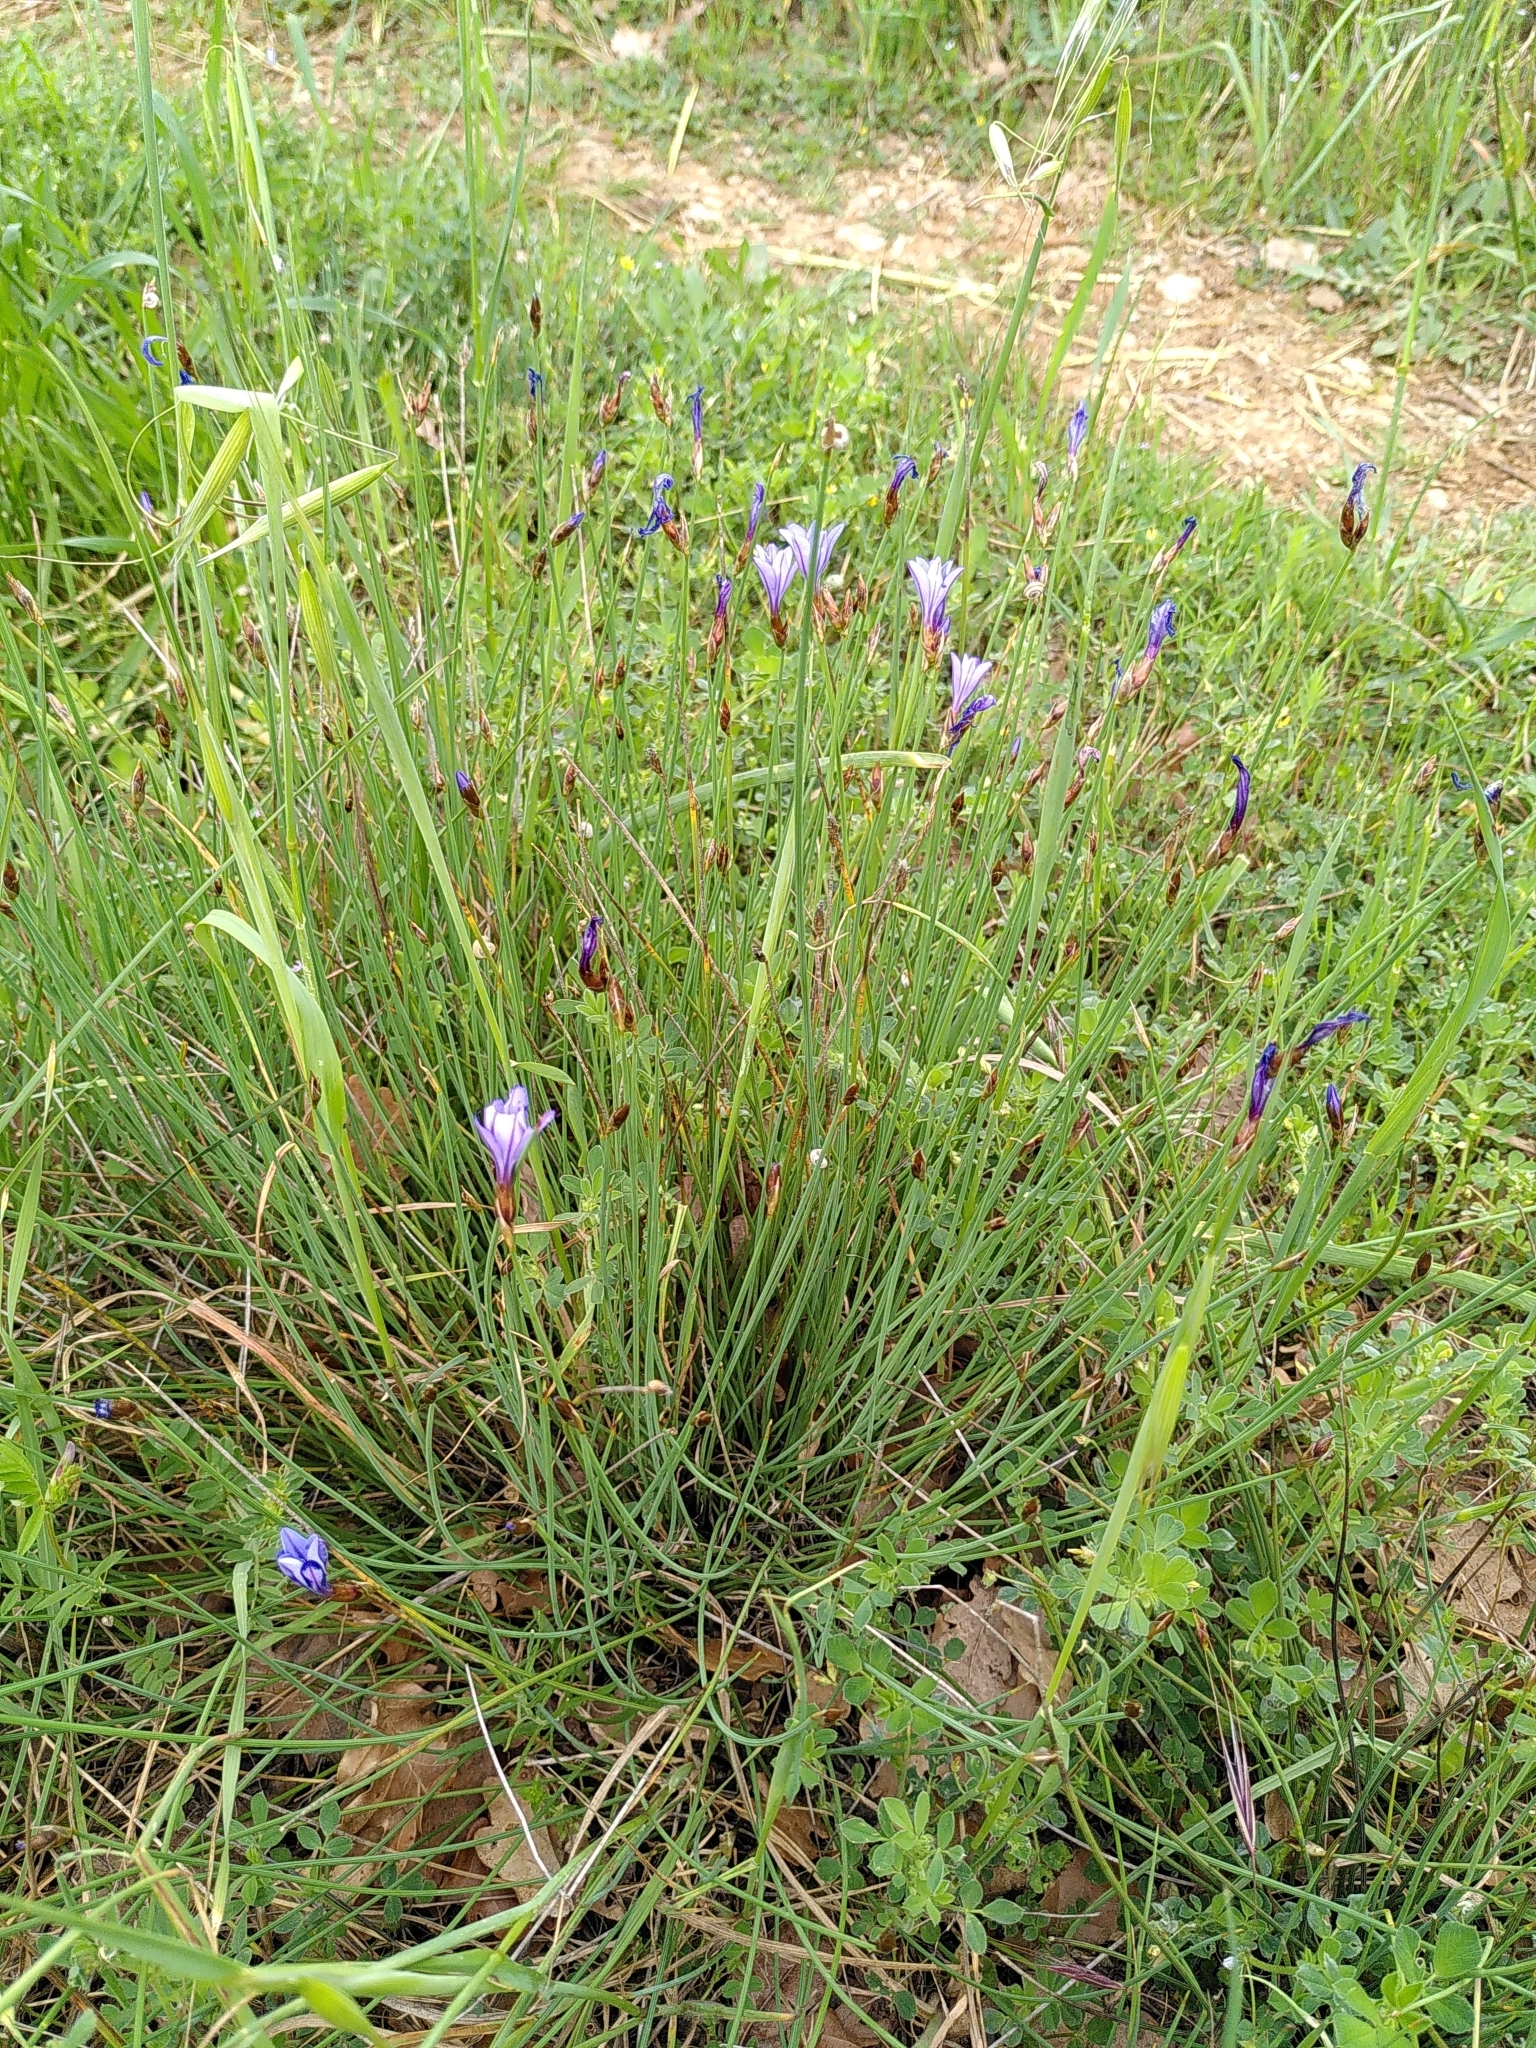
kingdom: Plantae
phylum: Tracheophyta
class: Liliopsida
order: Asparagales
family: Asparagaceae
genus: Aphyllanthes
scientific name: Aphyllanthes monspeliensis
